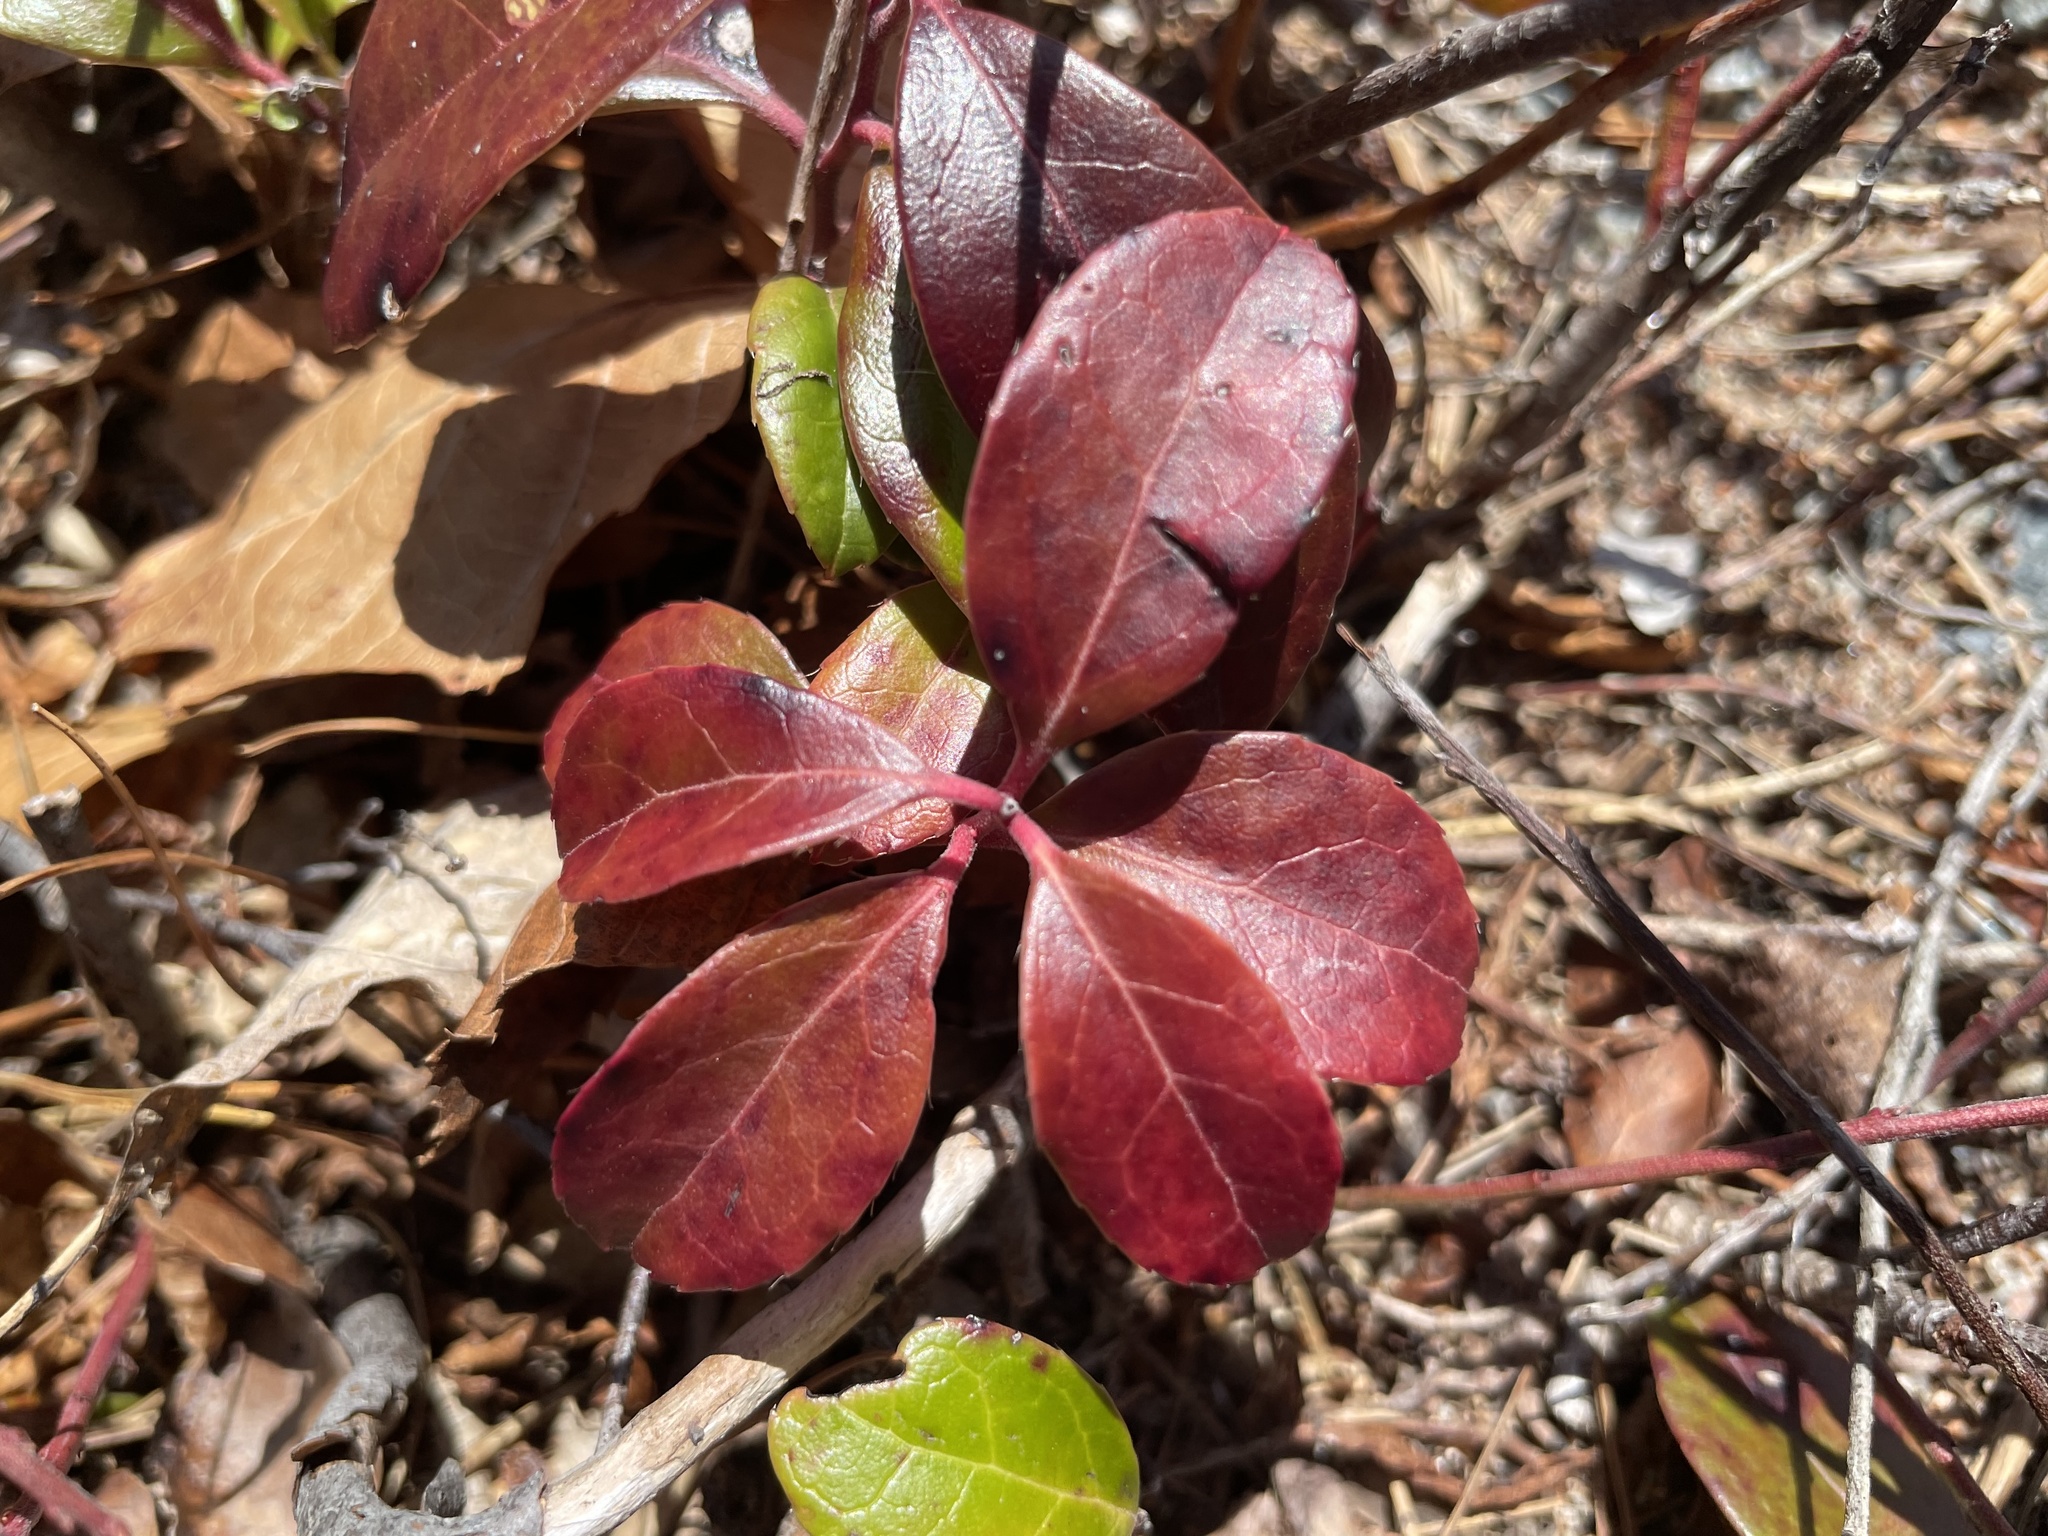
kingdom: Plantae
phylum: Tracheophyta
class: Magnoliopsida
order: Ericales
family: Ericaceae
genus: Gaultheria
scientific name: Gaultheria procumbens
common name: Checkerberry
